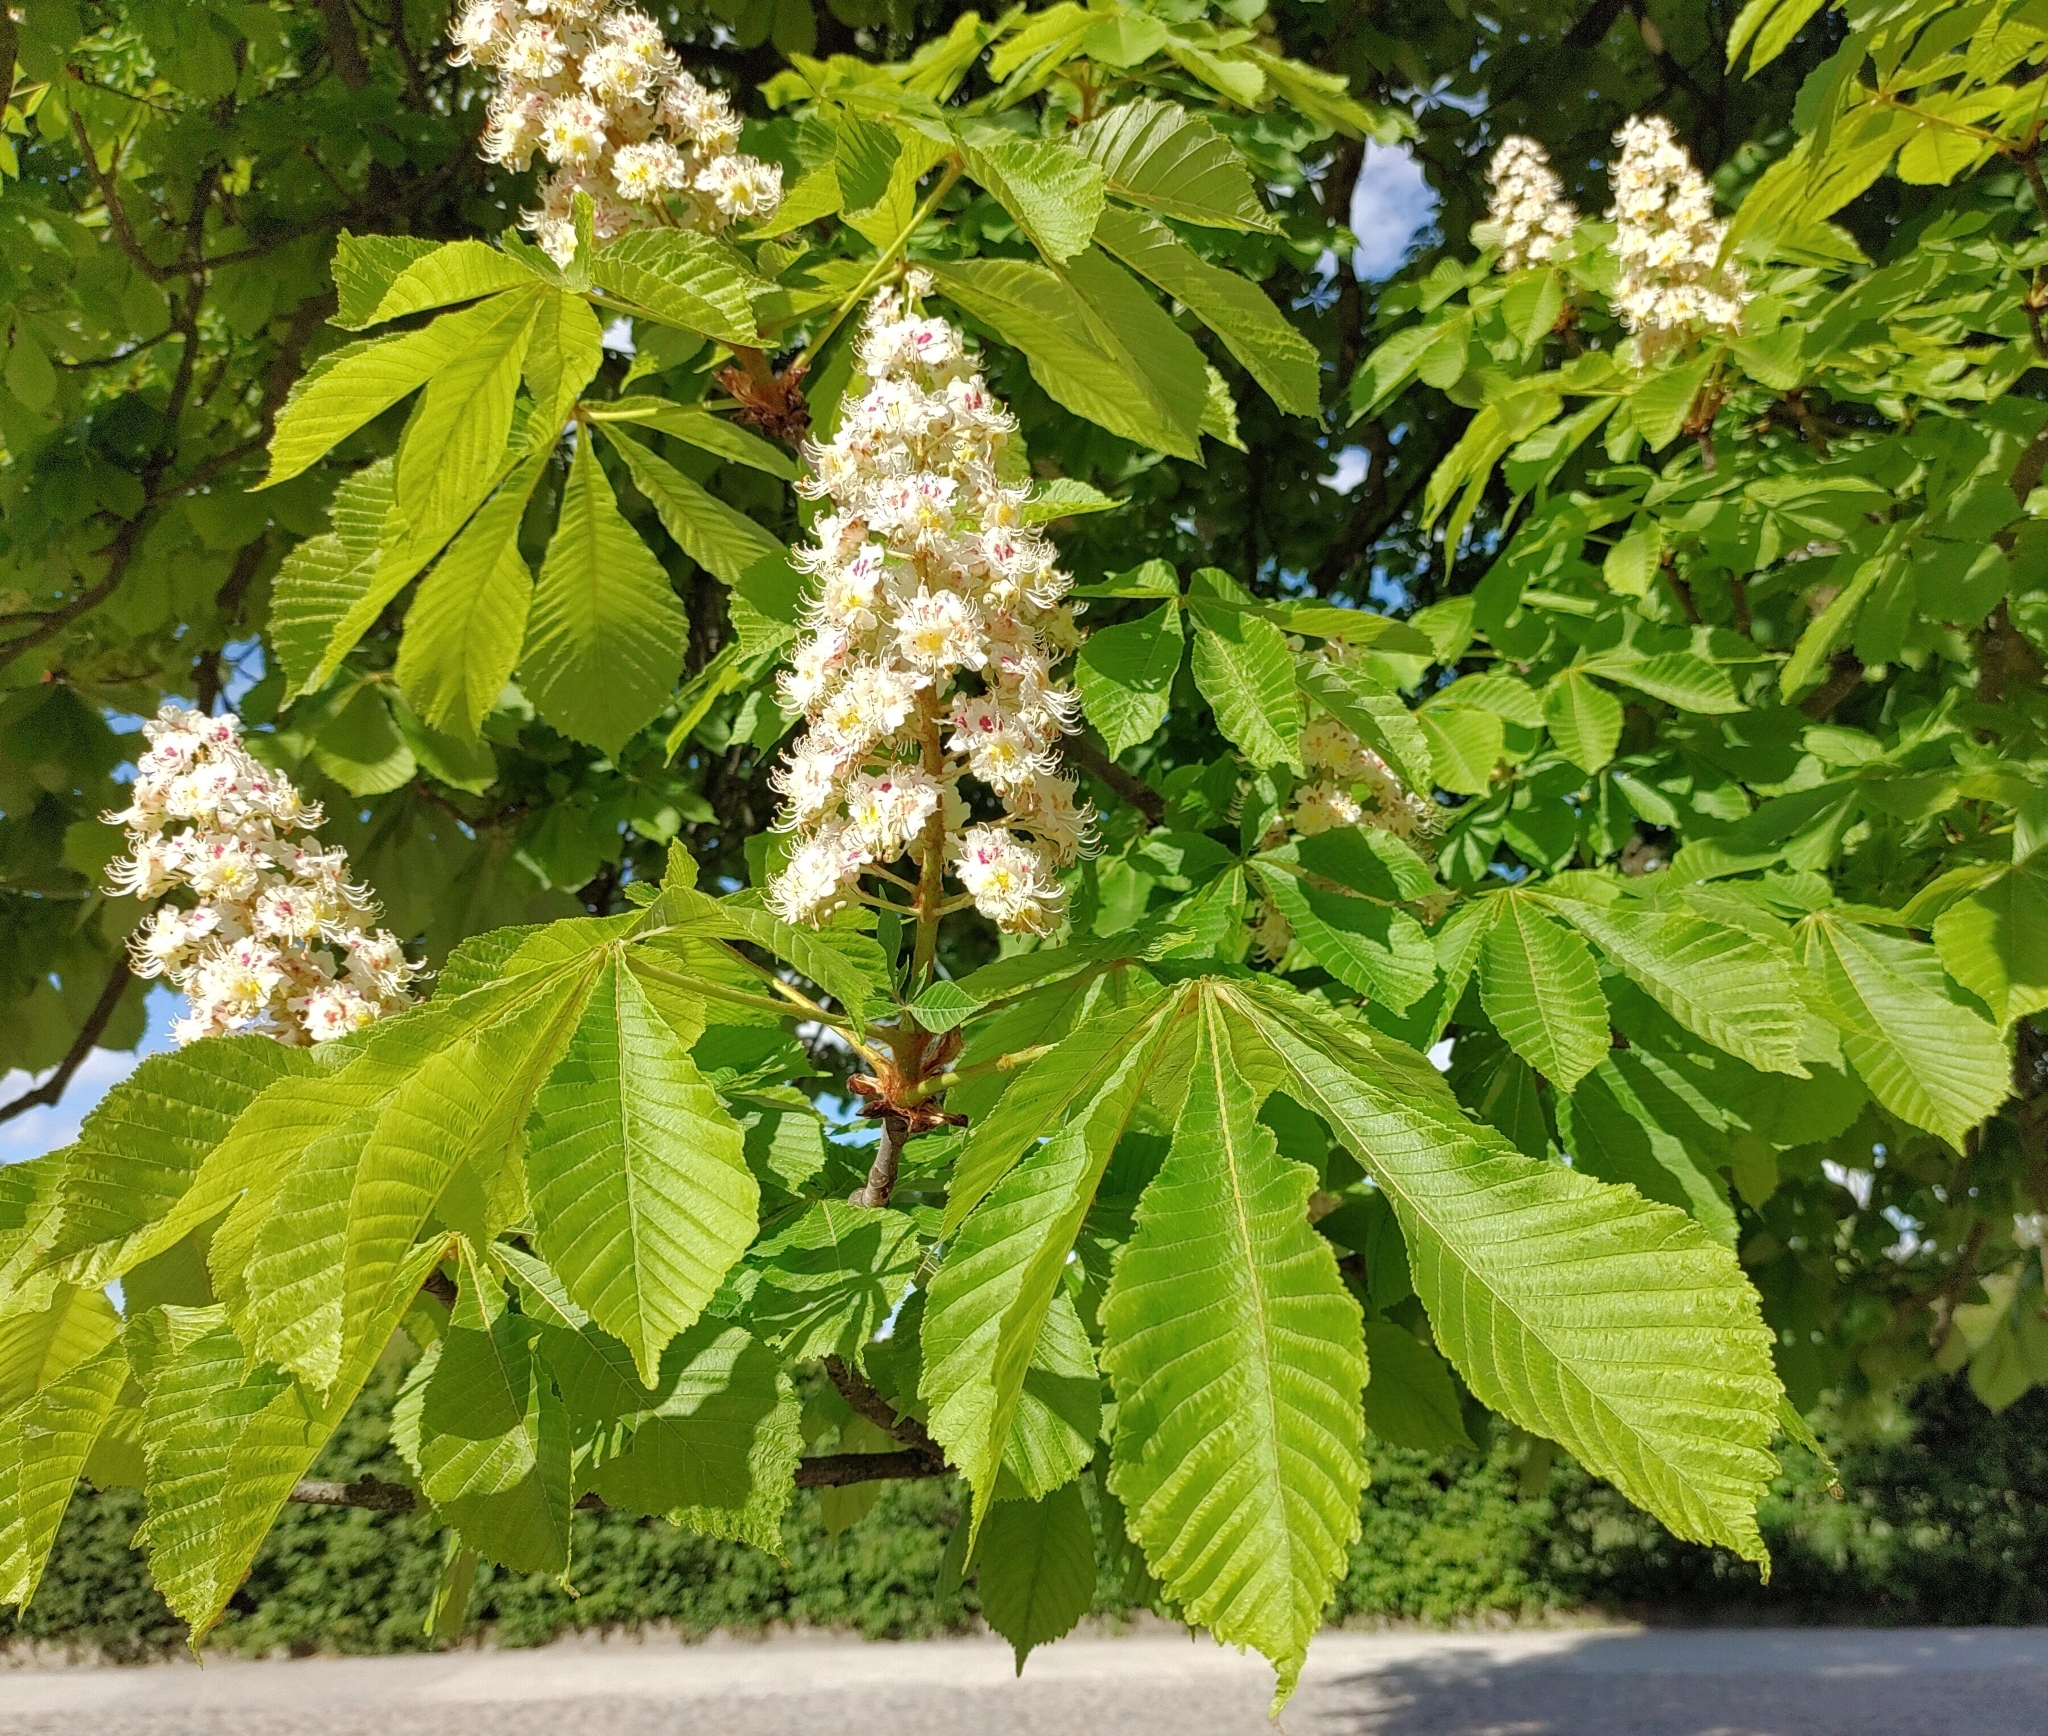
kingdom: Plantae
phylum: Tracheophyta
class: Magnoliopsida
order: Sapindales
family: Sapindaceae
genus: Aesculus
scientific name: Aesculus hippocastanum
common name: Horse-chestnut
